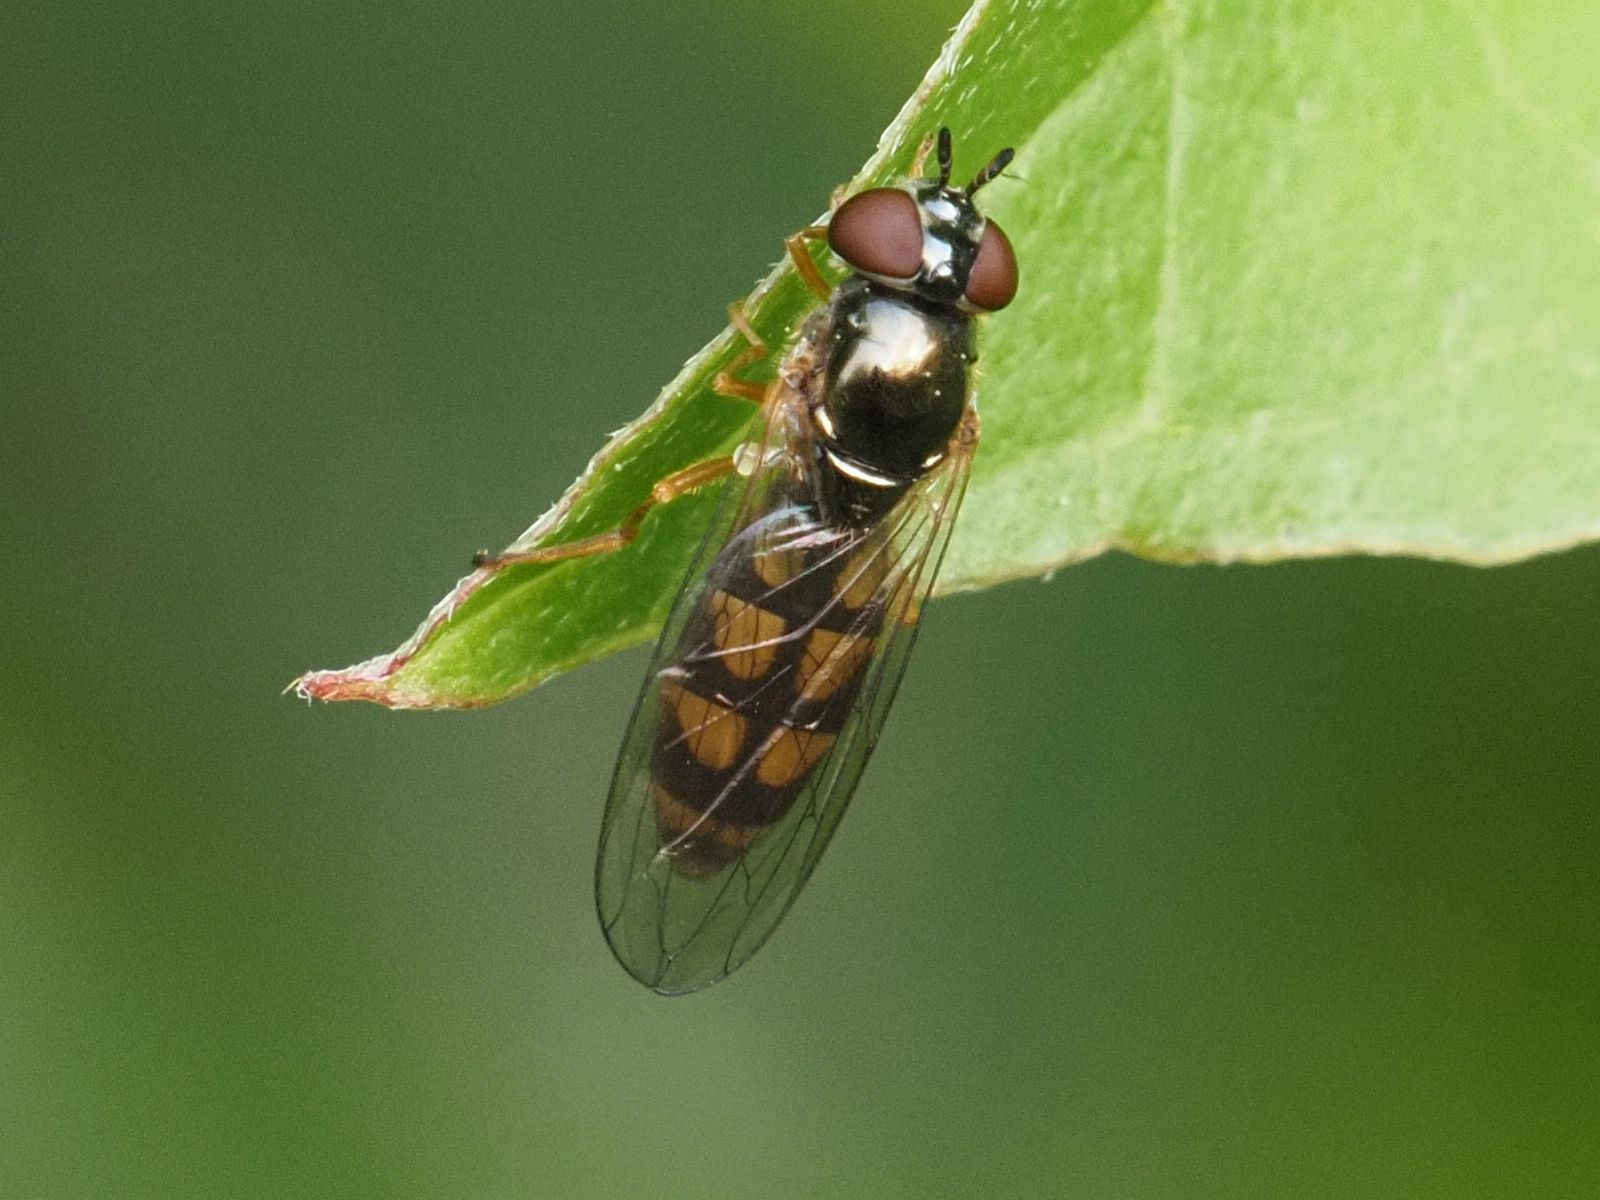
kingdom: Animalia
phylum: Arthropoda
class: Insecta
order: Diptera
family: Syrphidae
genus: Melanostoma
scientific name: Melanostoma mellina
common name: Hover fly
